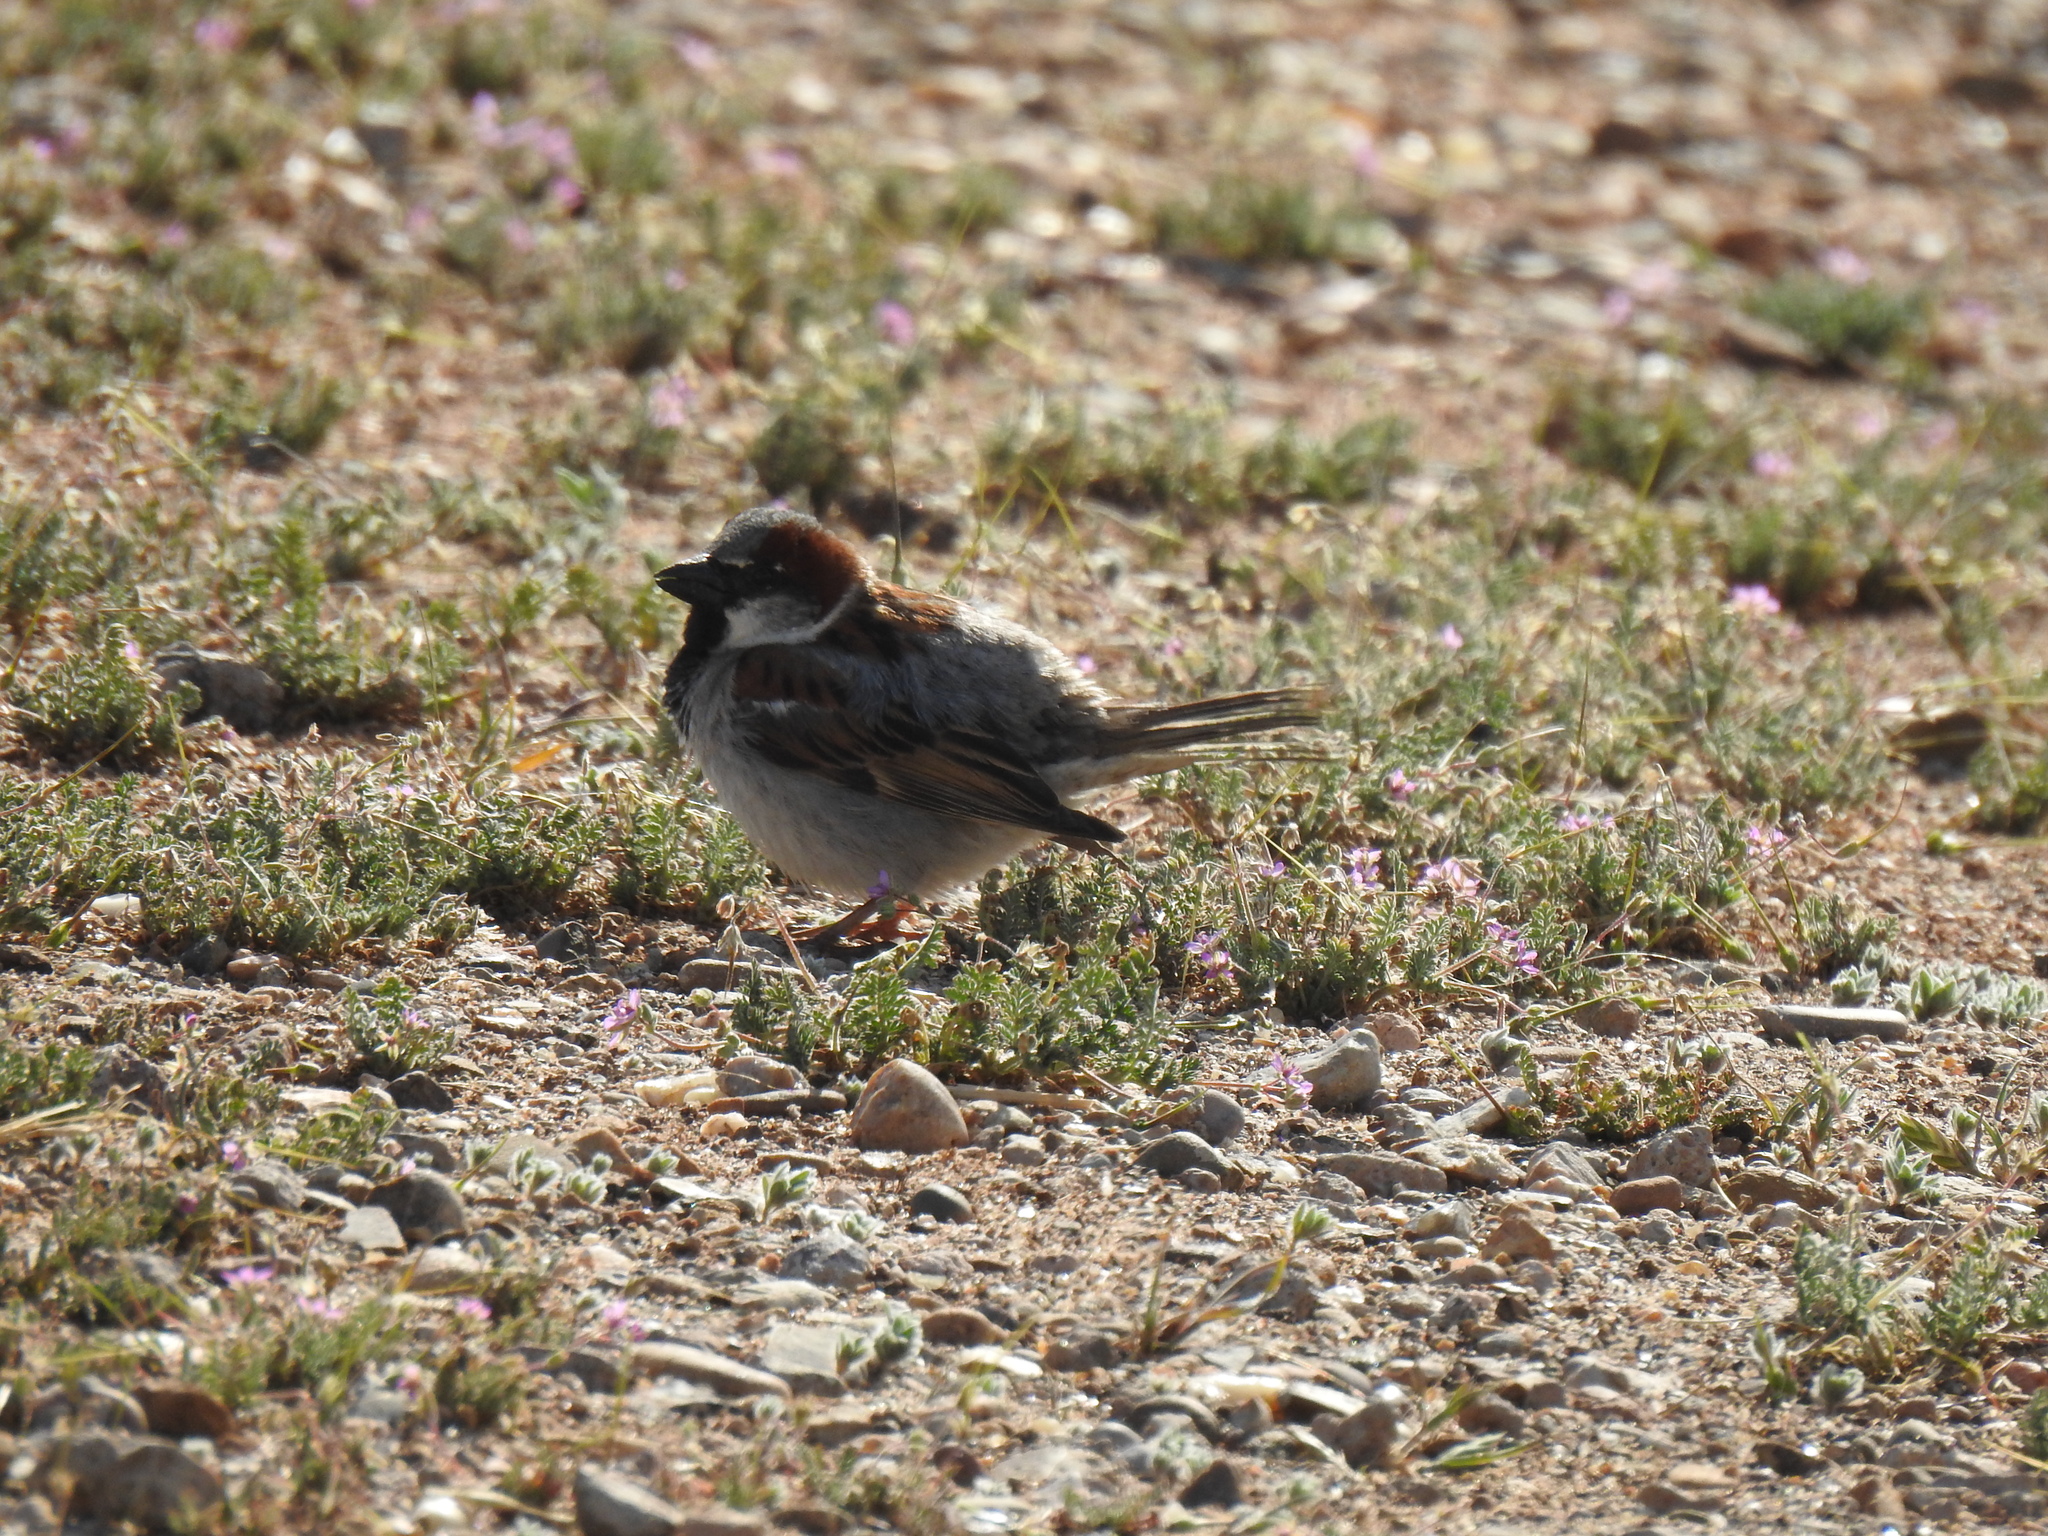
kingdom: Animalia
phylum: Chordata
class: Aves
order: Passeriformes
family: Passeridae
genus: Passer
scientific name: Passer domesticus
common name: House sparrow
